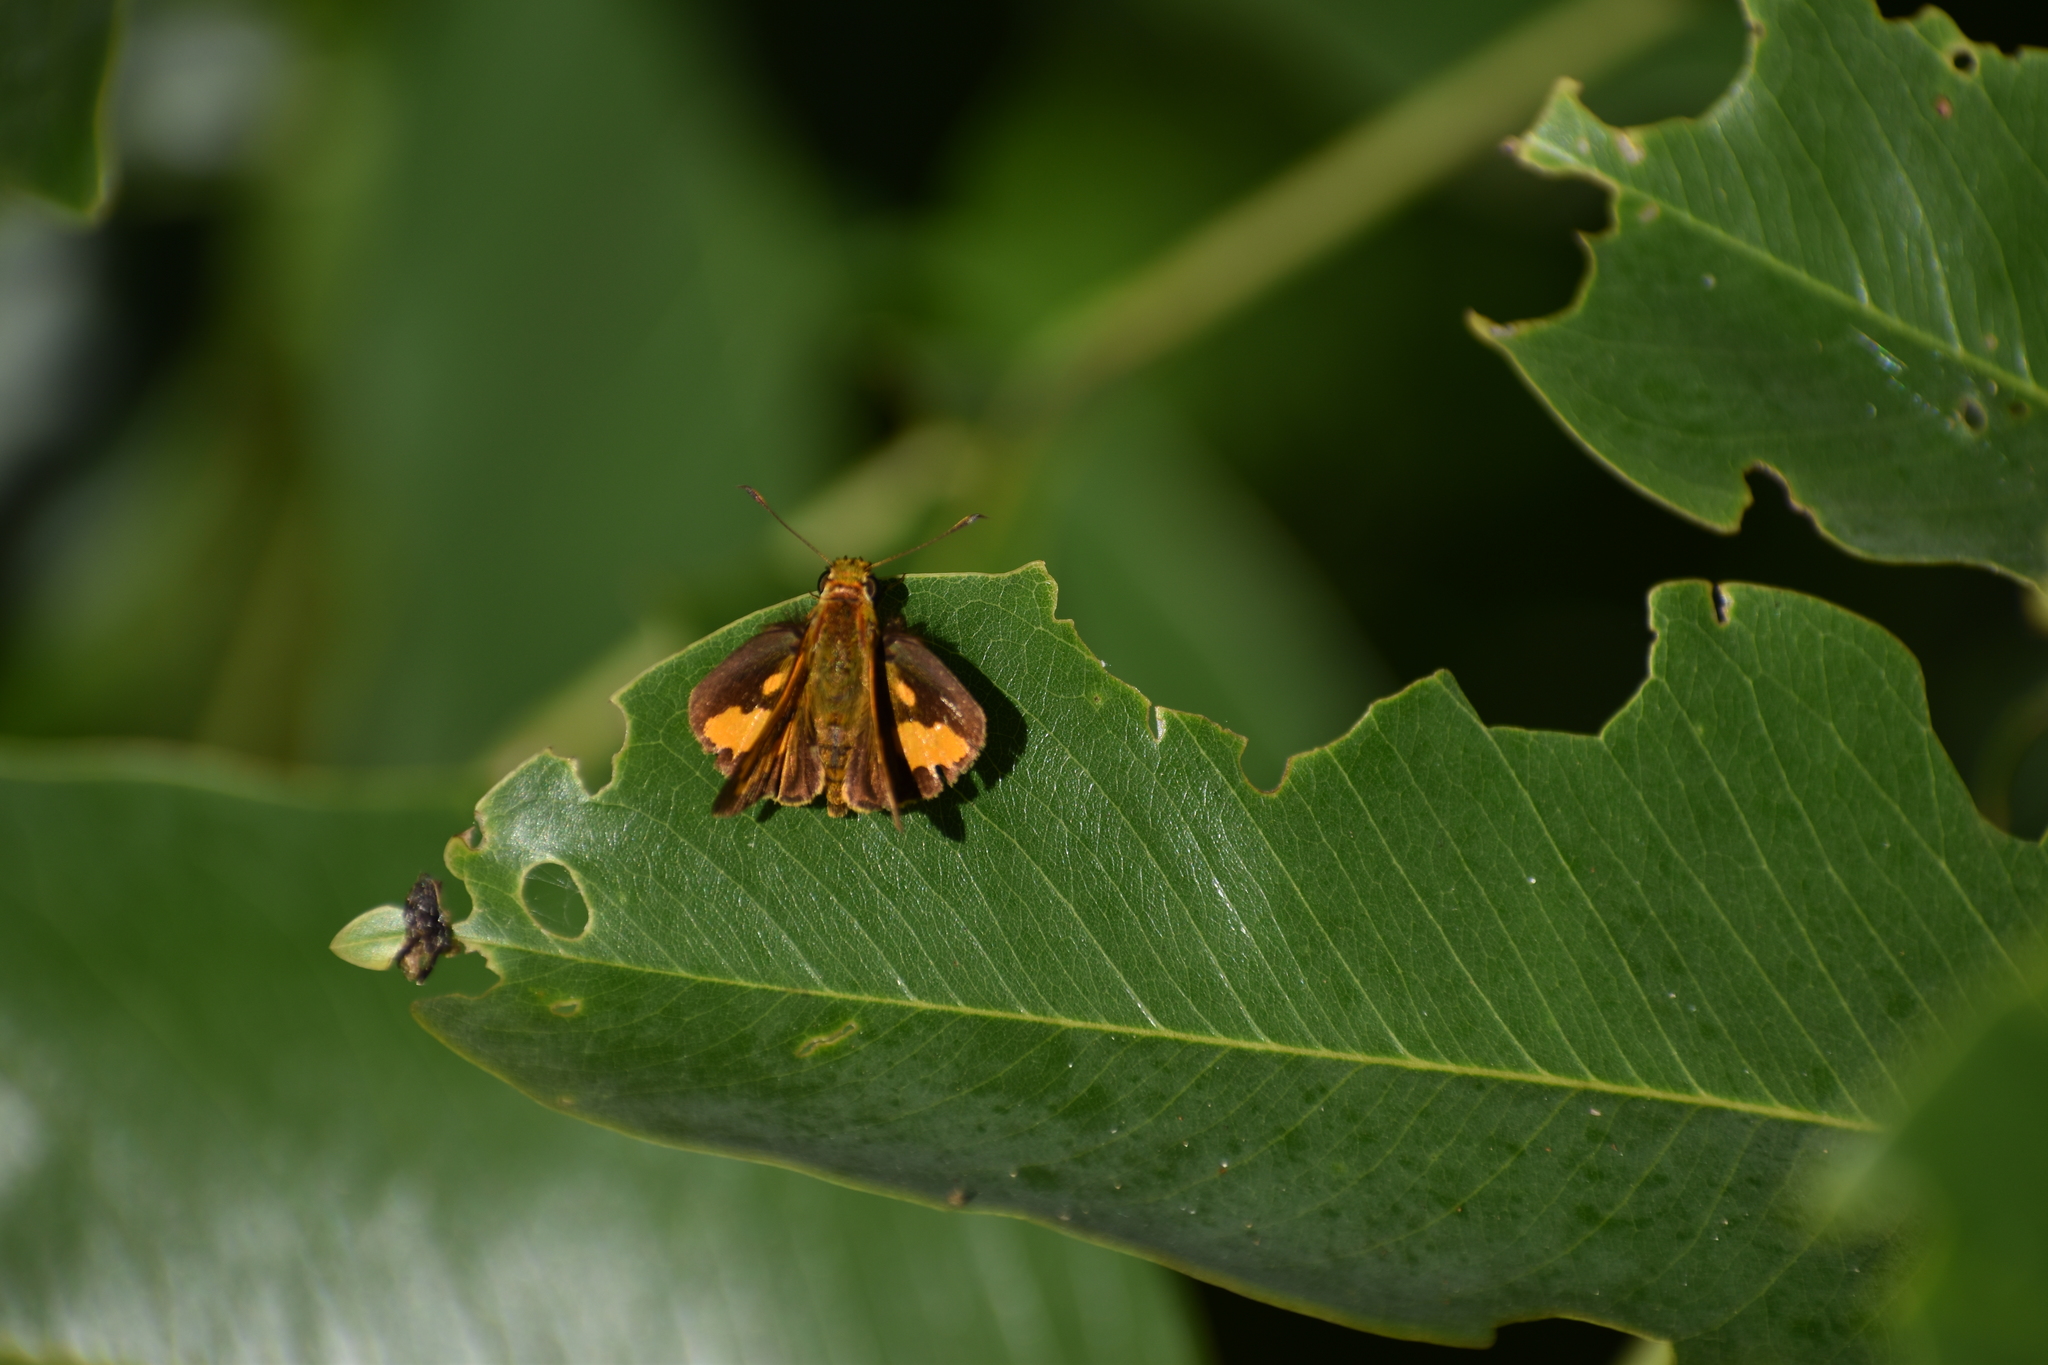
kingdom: Animalia
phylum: Arthropoda
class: Insecta
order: Lepidoptera
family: Hesperiidae
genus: Ocybadistes
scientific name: Ocybadistes ardea
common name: Dark orange dart
